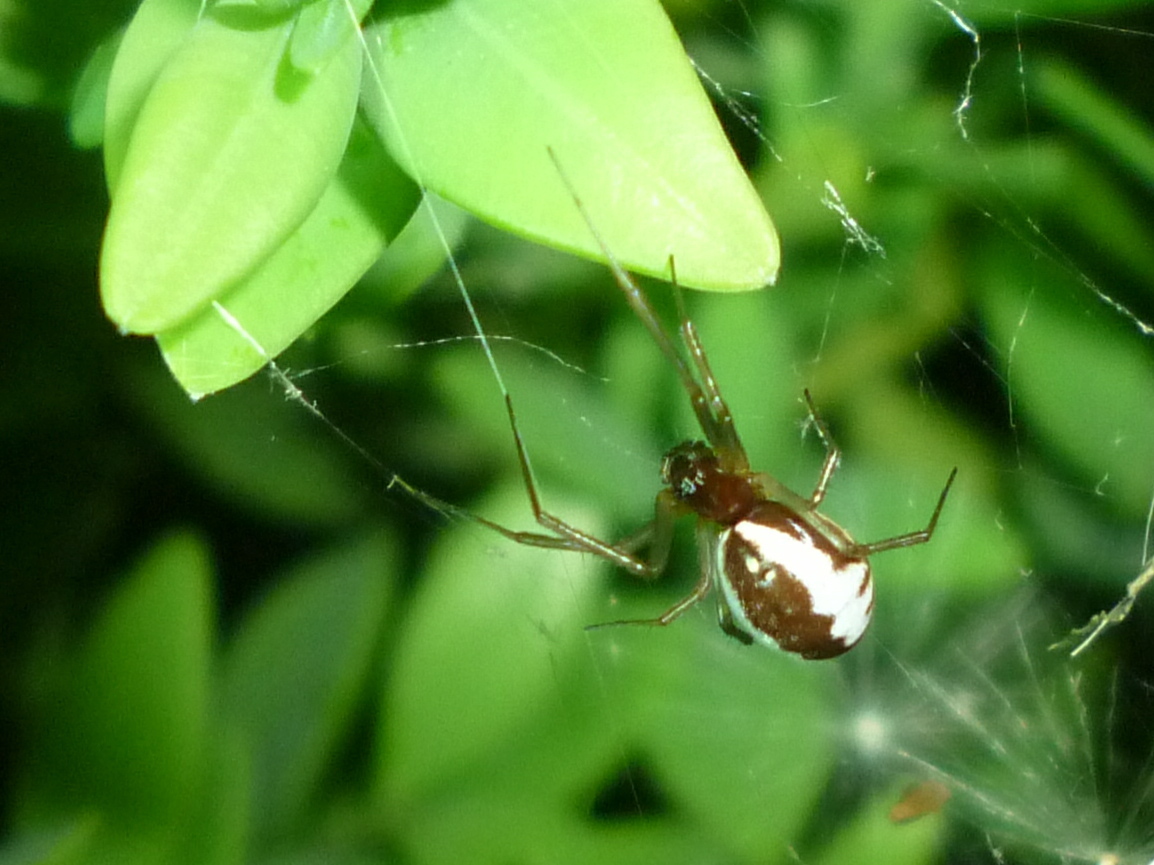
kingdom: Animalia
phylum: Arthropoda
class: Arachnida
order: Araneae
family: Linyphiidae
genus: Frontinella
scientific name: Frontinella pyramitela
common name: Bowl-and-doily spider
